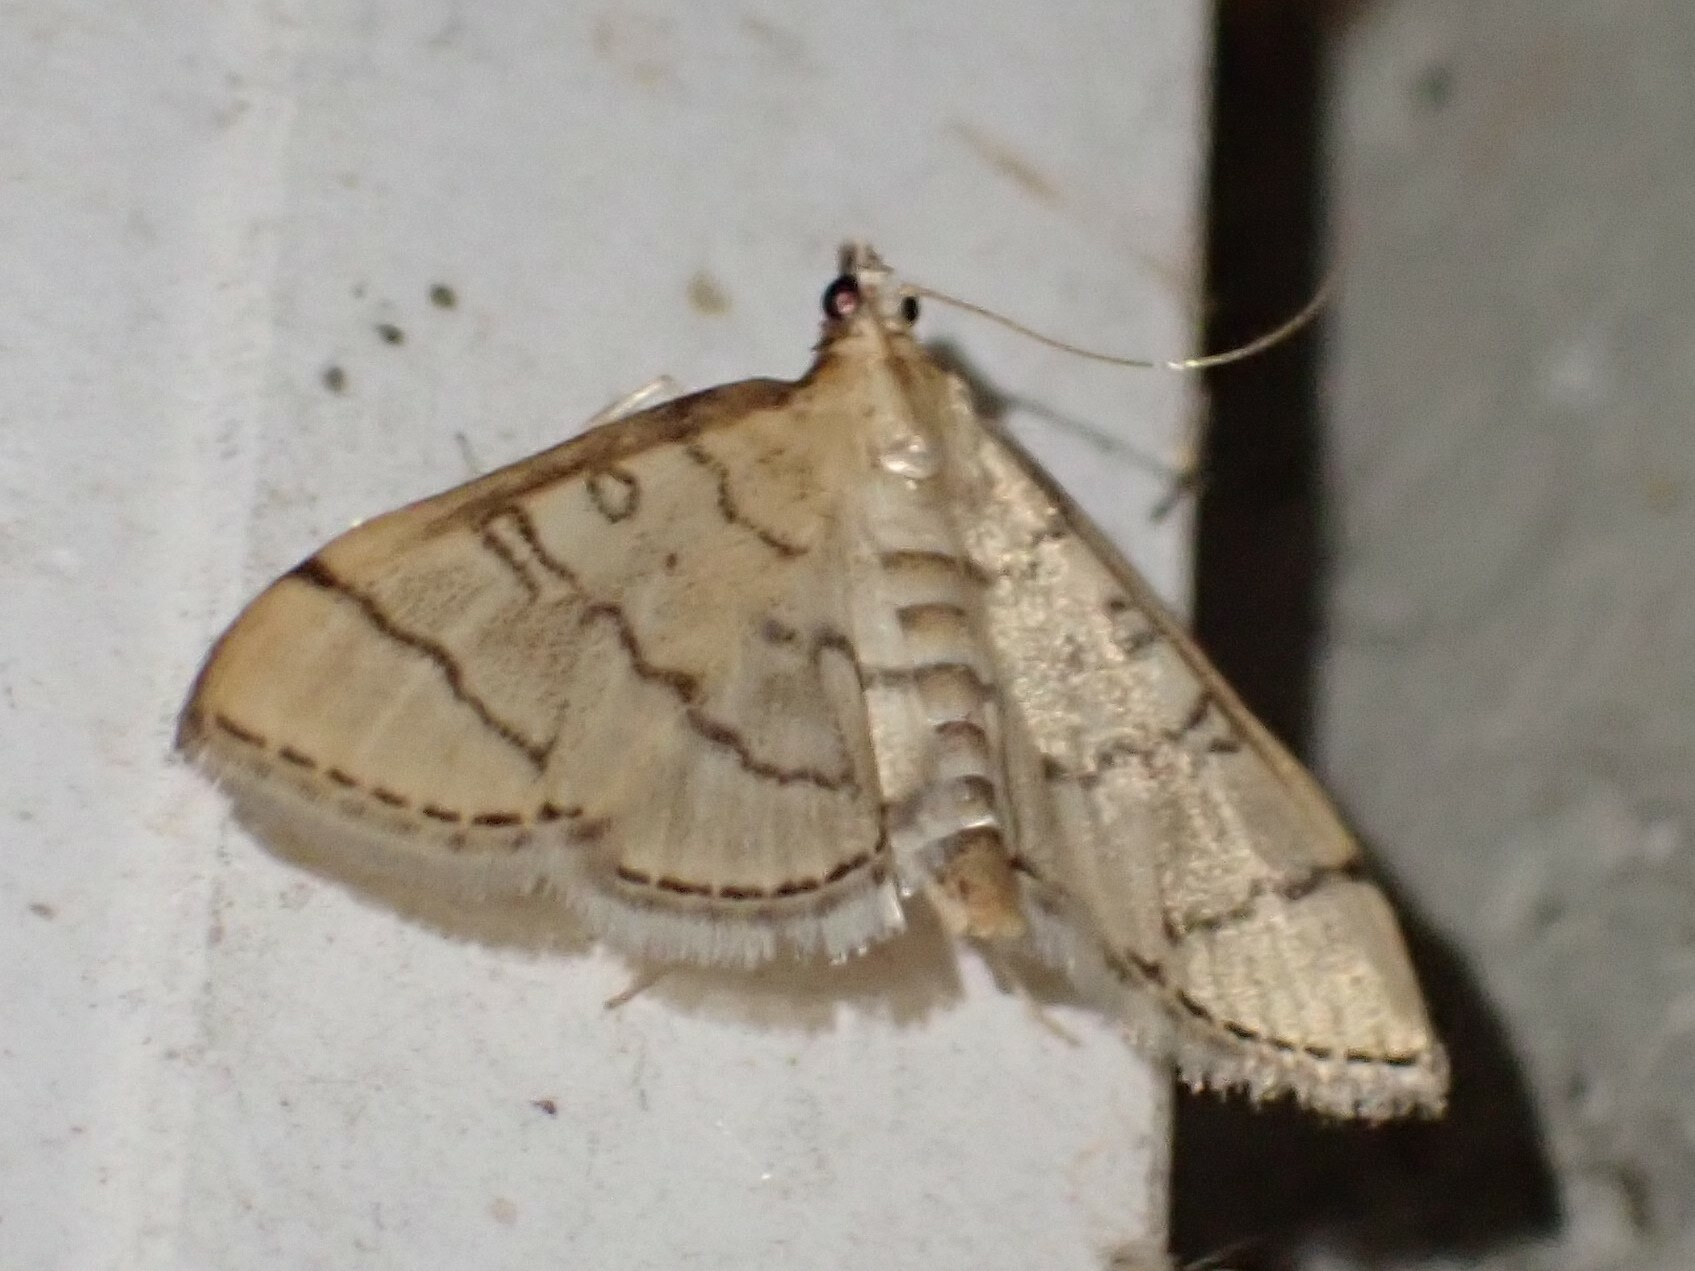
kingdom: Animalia
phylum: Arthropoda
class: Insecta
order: Lepidoptera
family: Crambidae
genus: Lamprosema
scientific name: Lamprosema Blepharomastix ranalis
